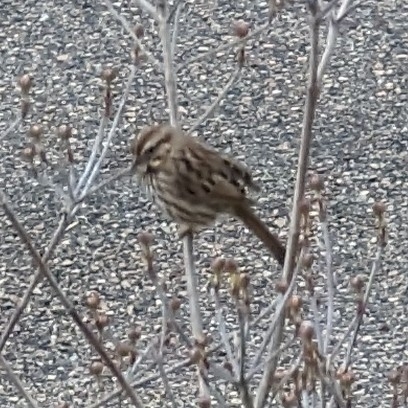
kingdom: Animalia
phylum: Chordata
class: Aves
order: Passeriformes
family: Passerellidae
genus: Melospiza
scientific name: Melospiza melodia
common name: Song sparrow
